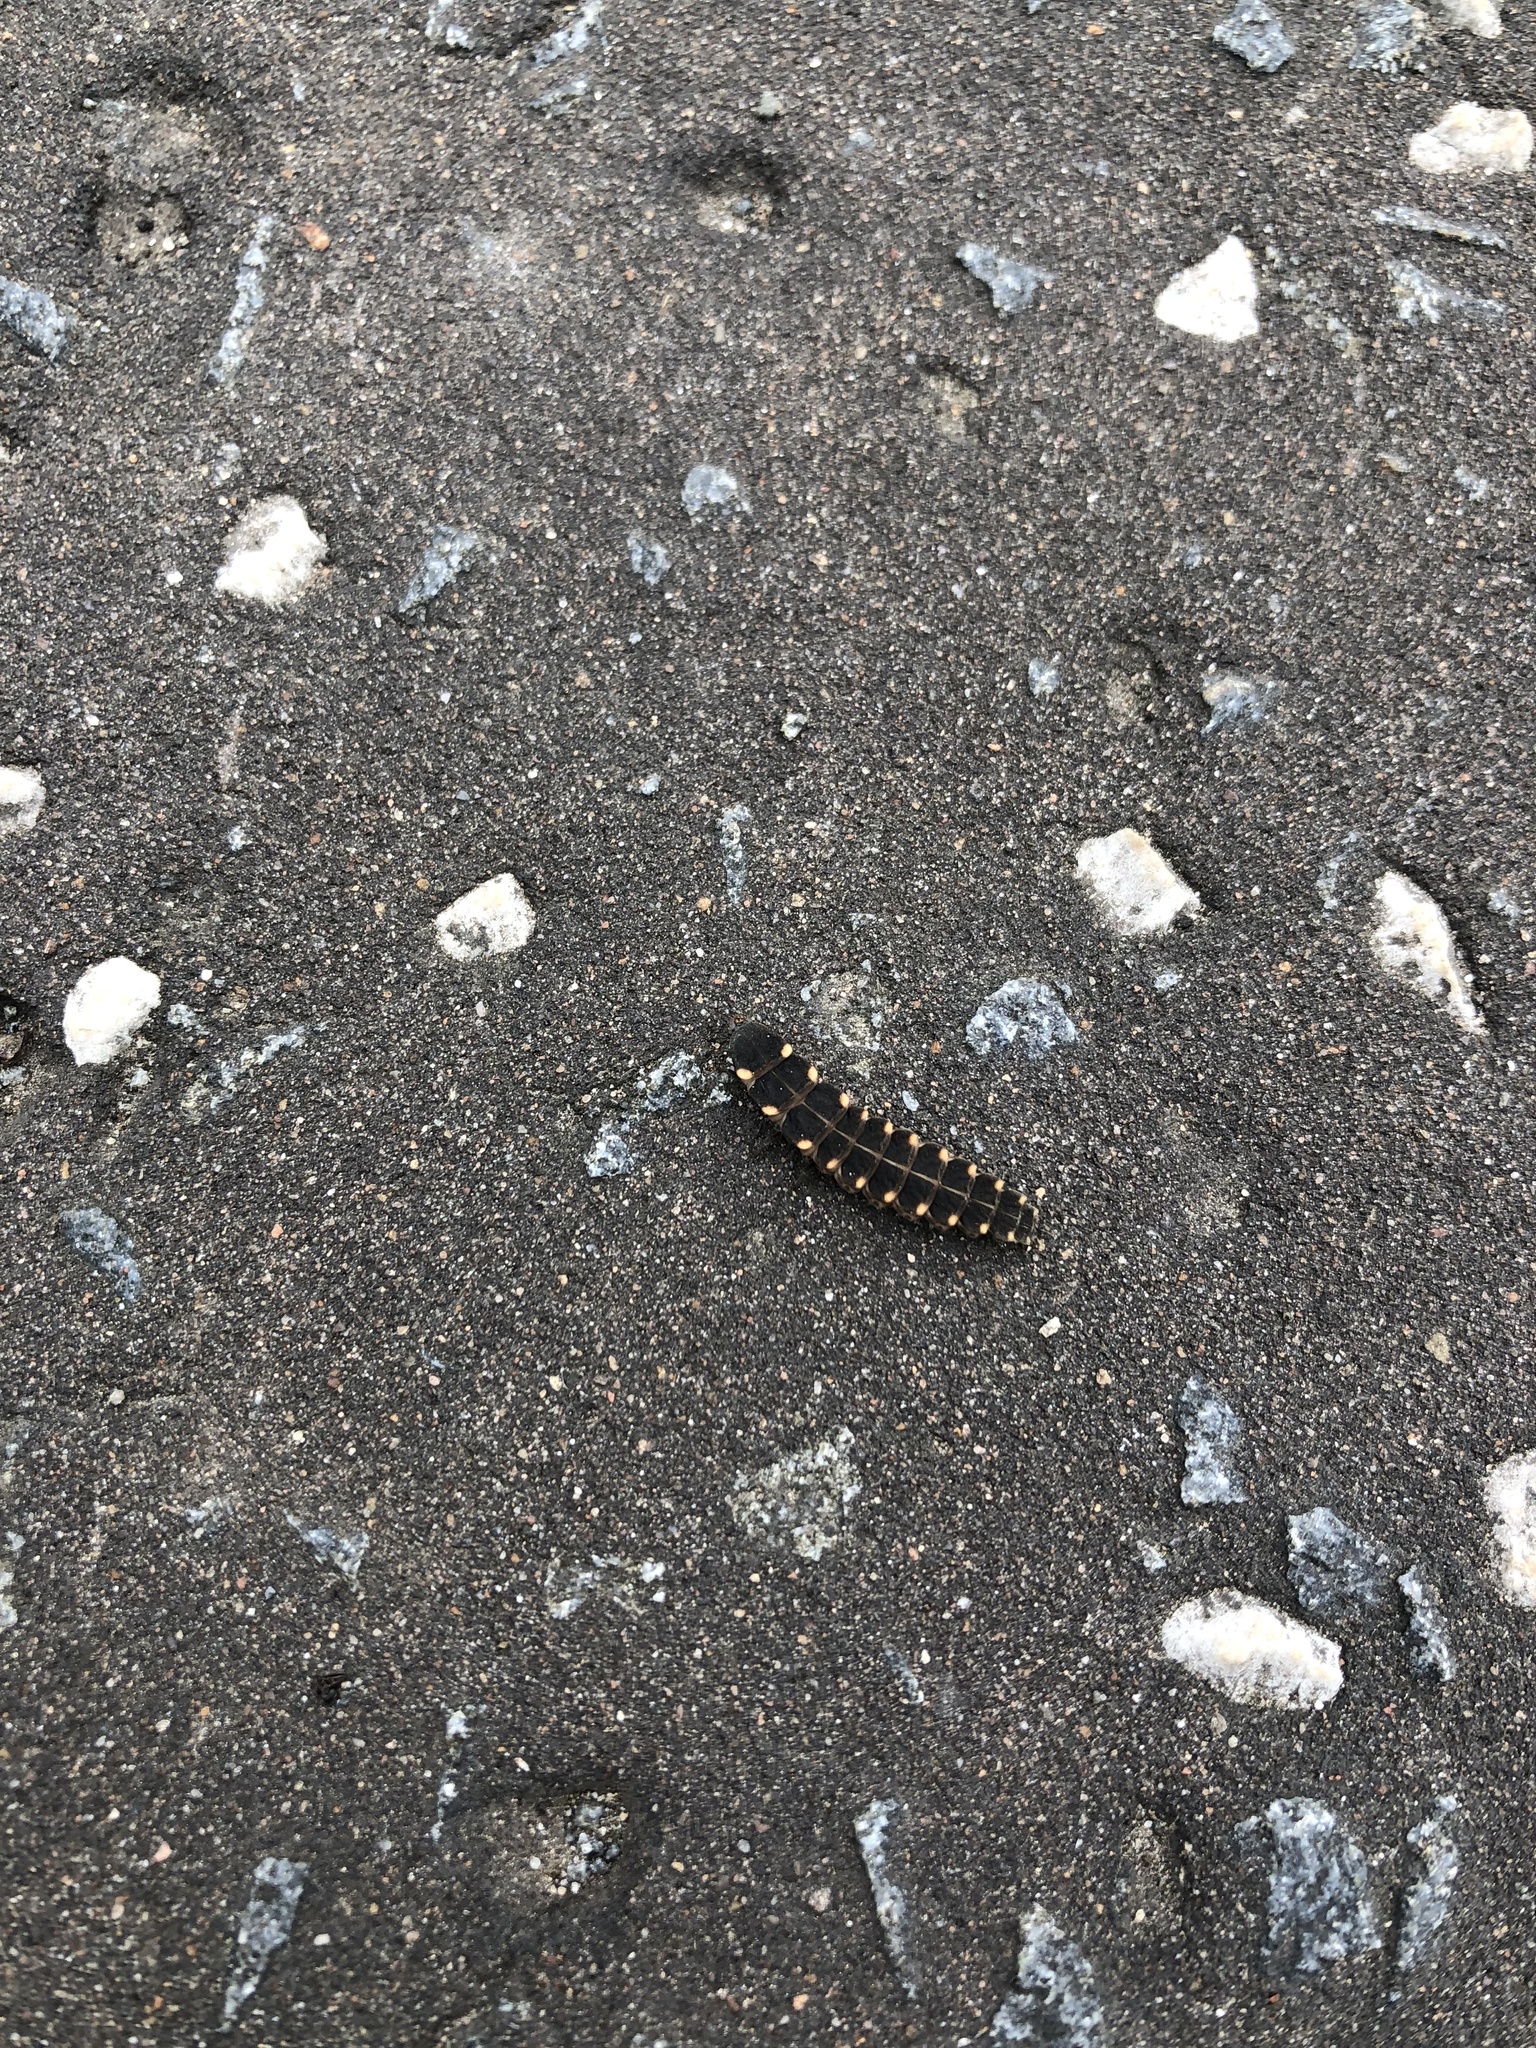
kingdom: Animalia
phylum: Arthropoda
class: Insecta
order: Coleoptera
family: Lampyridae
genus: Lampyris
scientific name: Lampyris noctiluca
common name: Glow-worm
